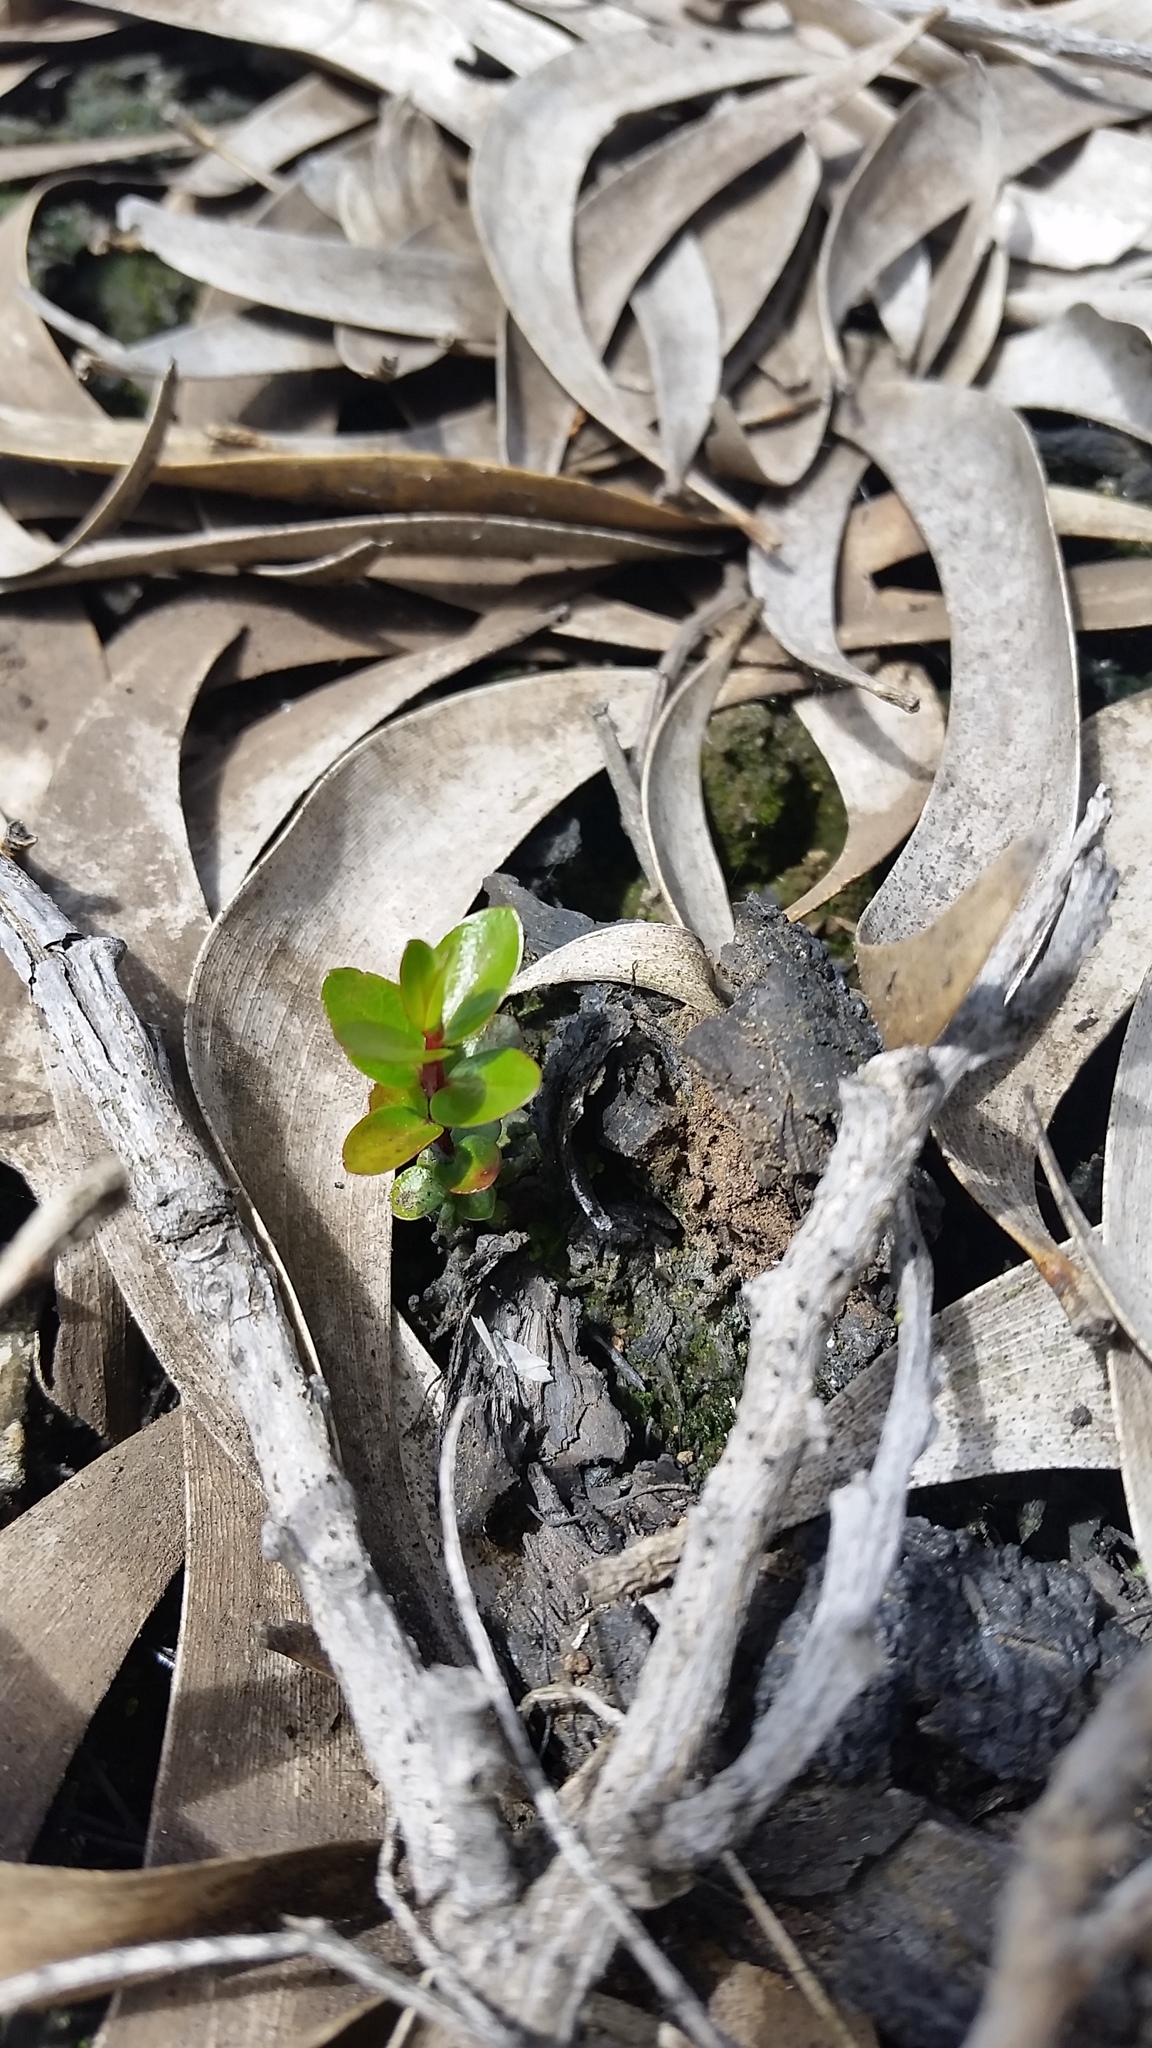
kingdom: Plantae
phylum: Tracheophyta
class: Magnoliopsida
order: Myrtales
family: Myrtaceae
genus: Metrosideros
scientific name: Metrosideros polymorpha
